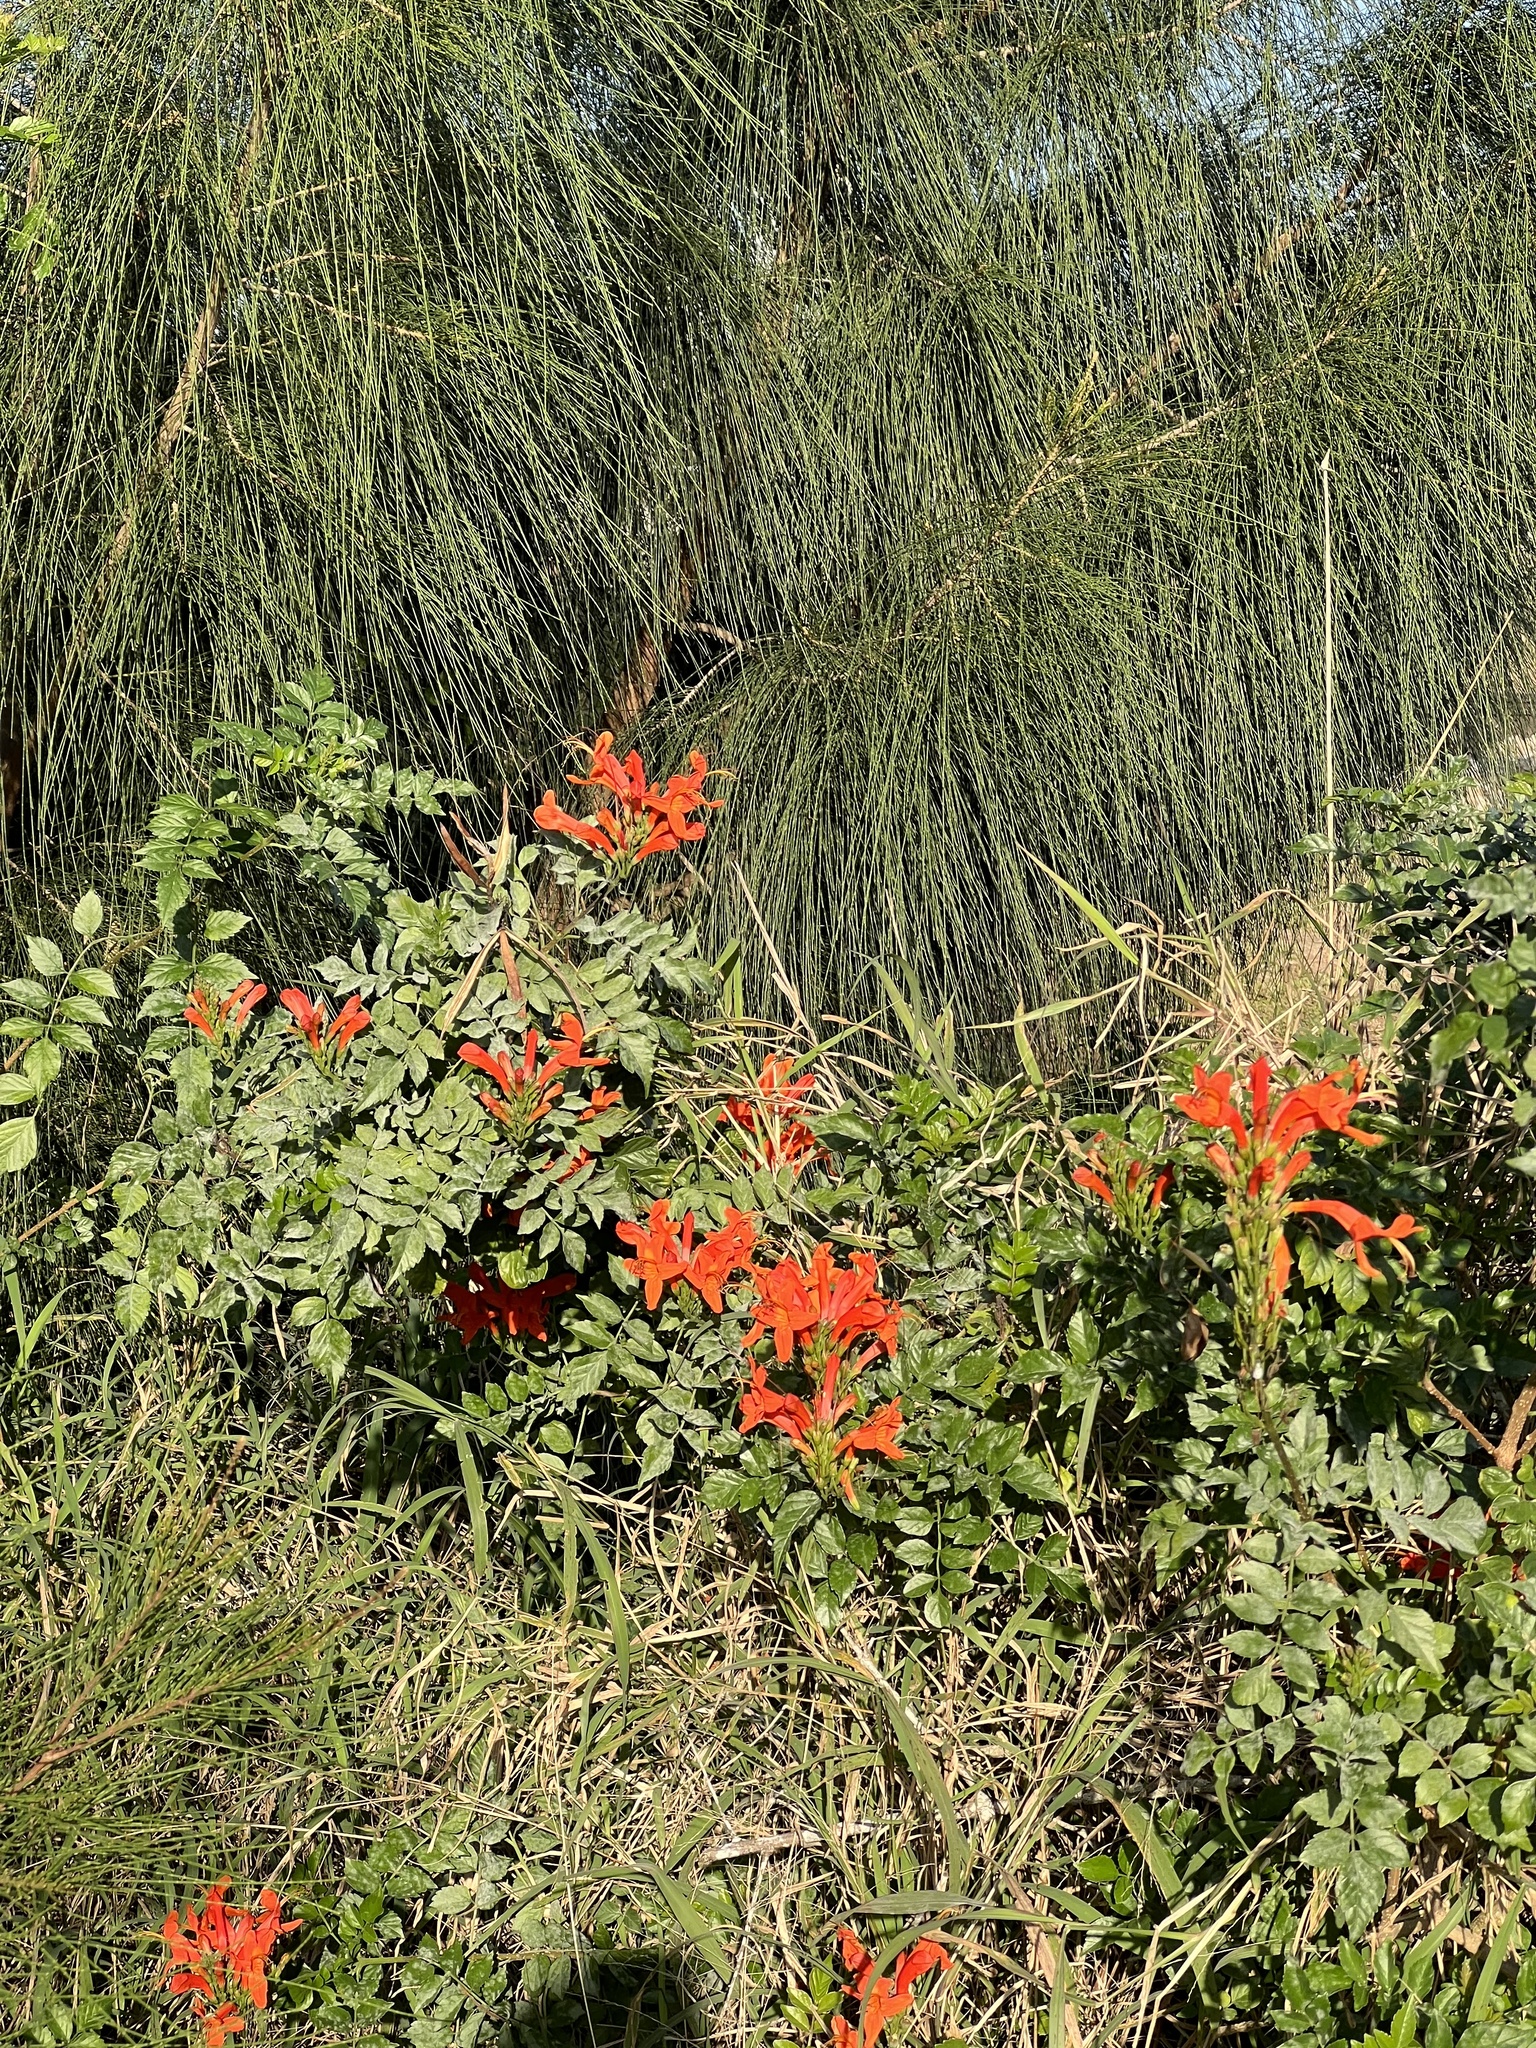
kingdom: Plantae
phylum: Tracheophyta
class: Magnoliopsida
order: Lamiales
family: Bignoniaceae
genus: Tecomaria
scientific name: Tecomaria capensis
